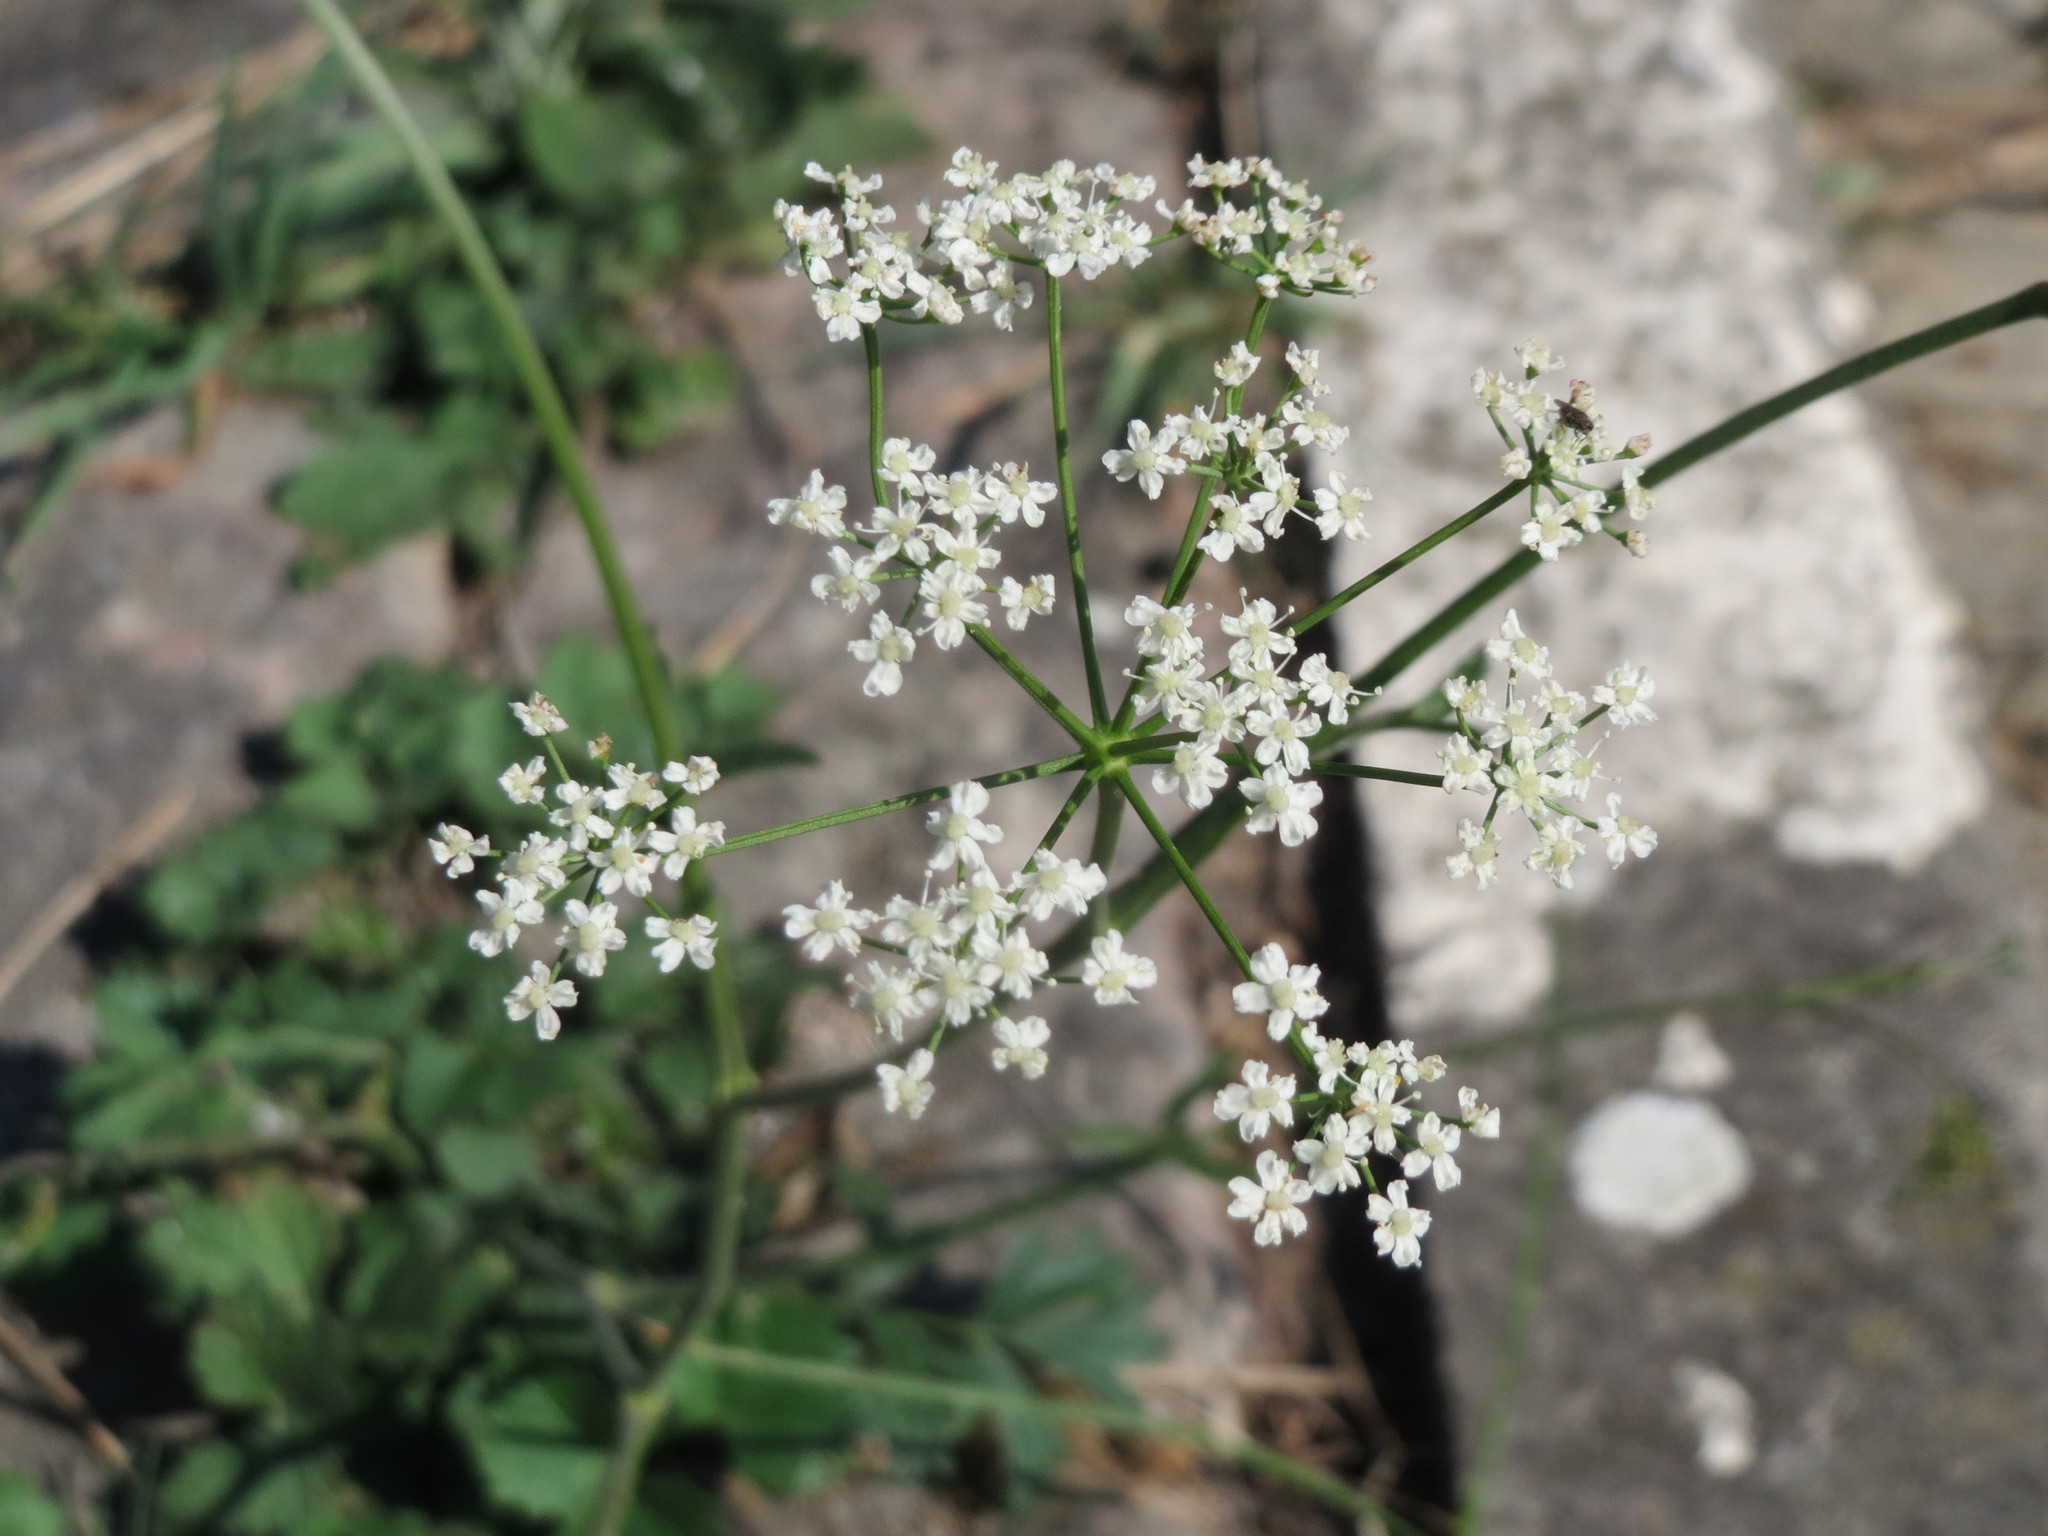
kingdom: Plantae
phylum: Tracheophyta
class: Magnoliopsida
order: Apiales
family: Apiaceae
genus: Pimpinella
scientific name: Pimpinella saxifraga
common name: Burnet-saxifrage
